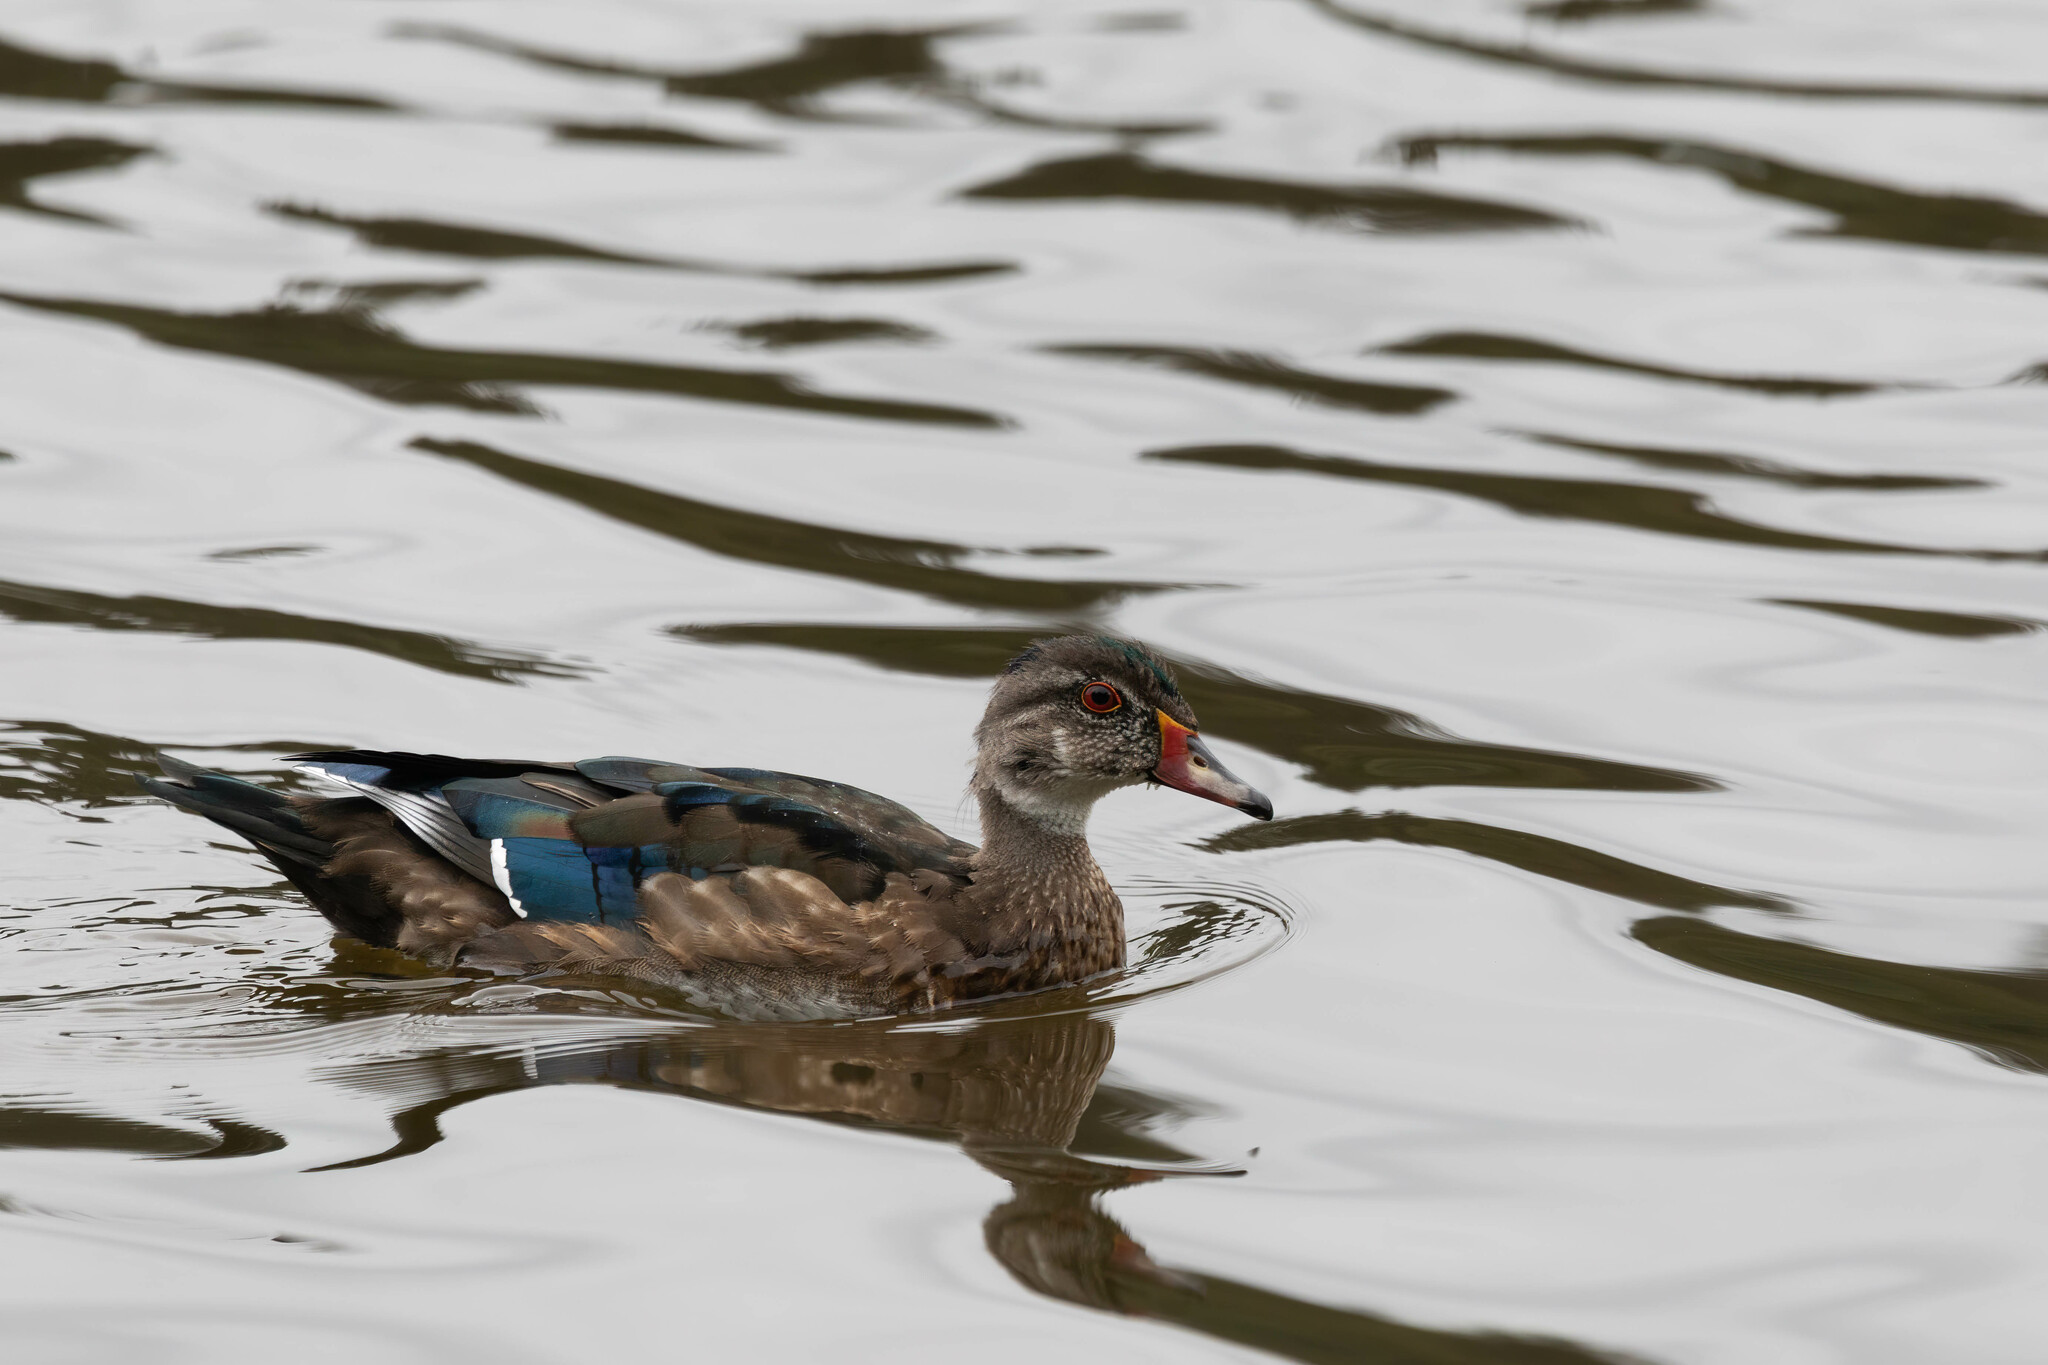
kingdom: Animalia
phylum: Chordata
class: Aves
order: Anseriformes
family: Anatidae
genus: Aix
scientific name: Aix sponsa
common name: Wood duck
